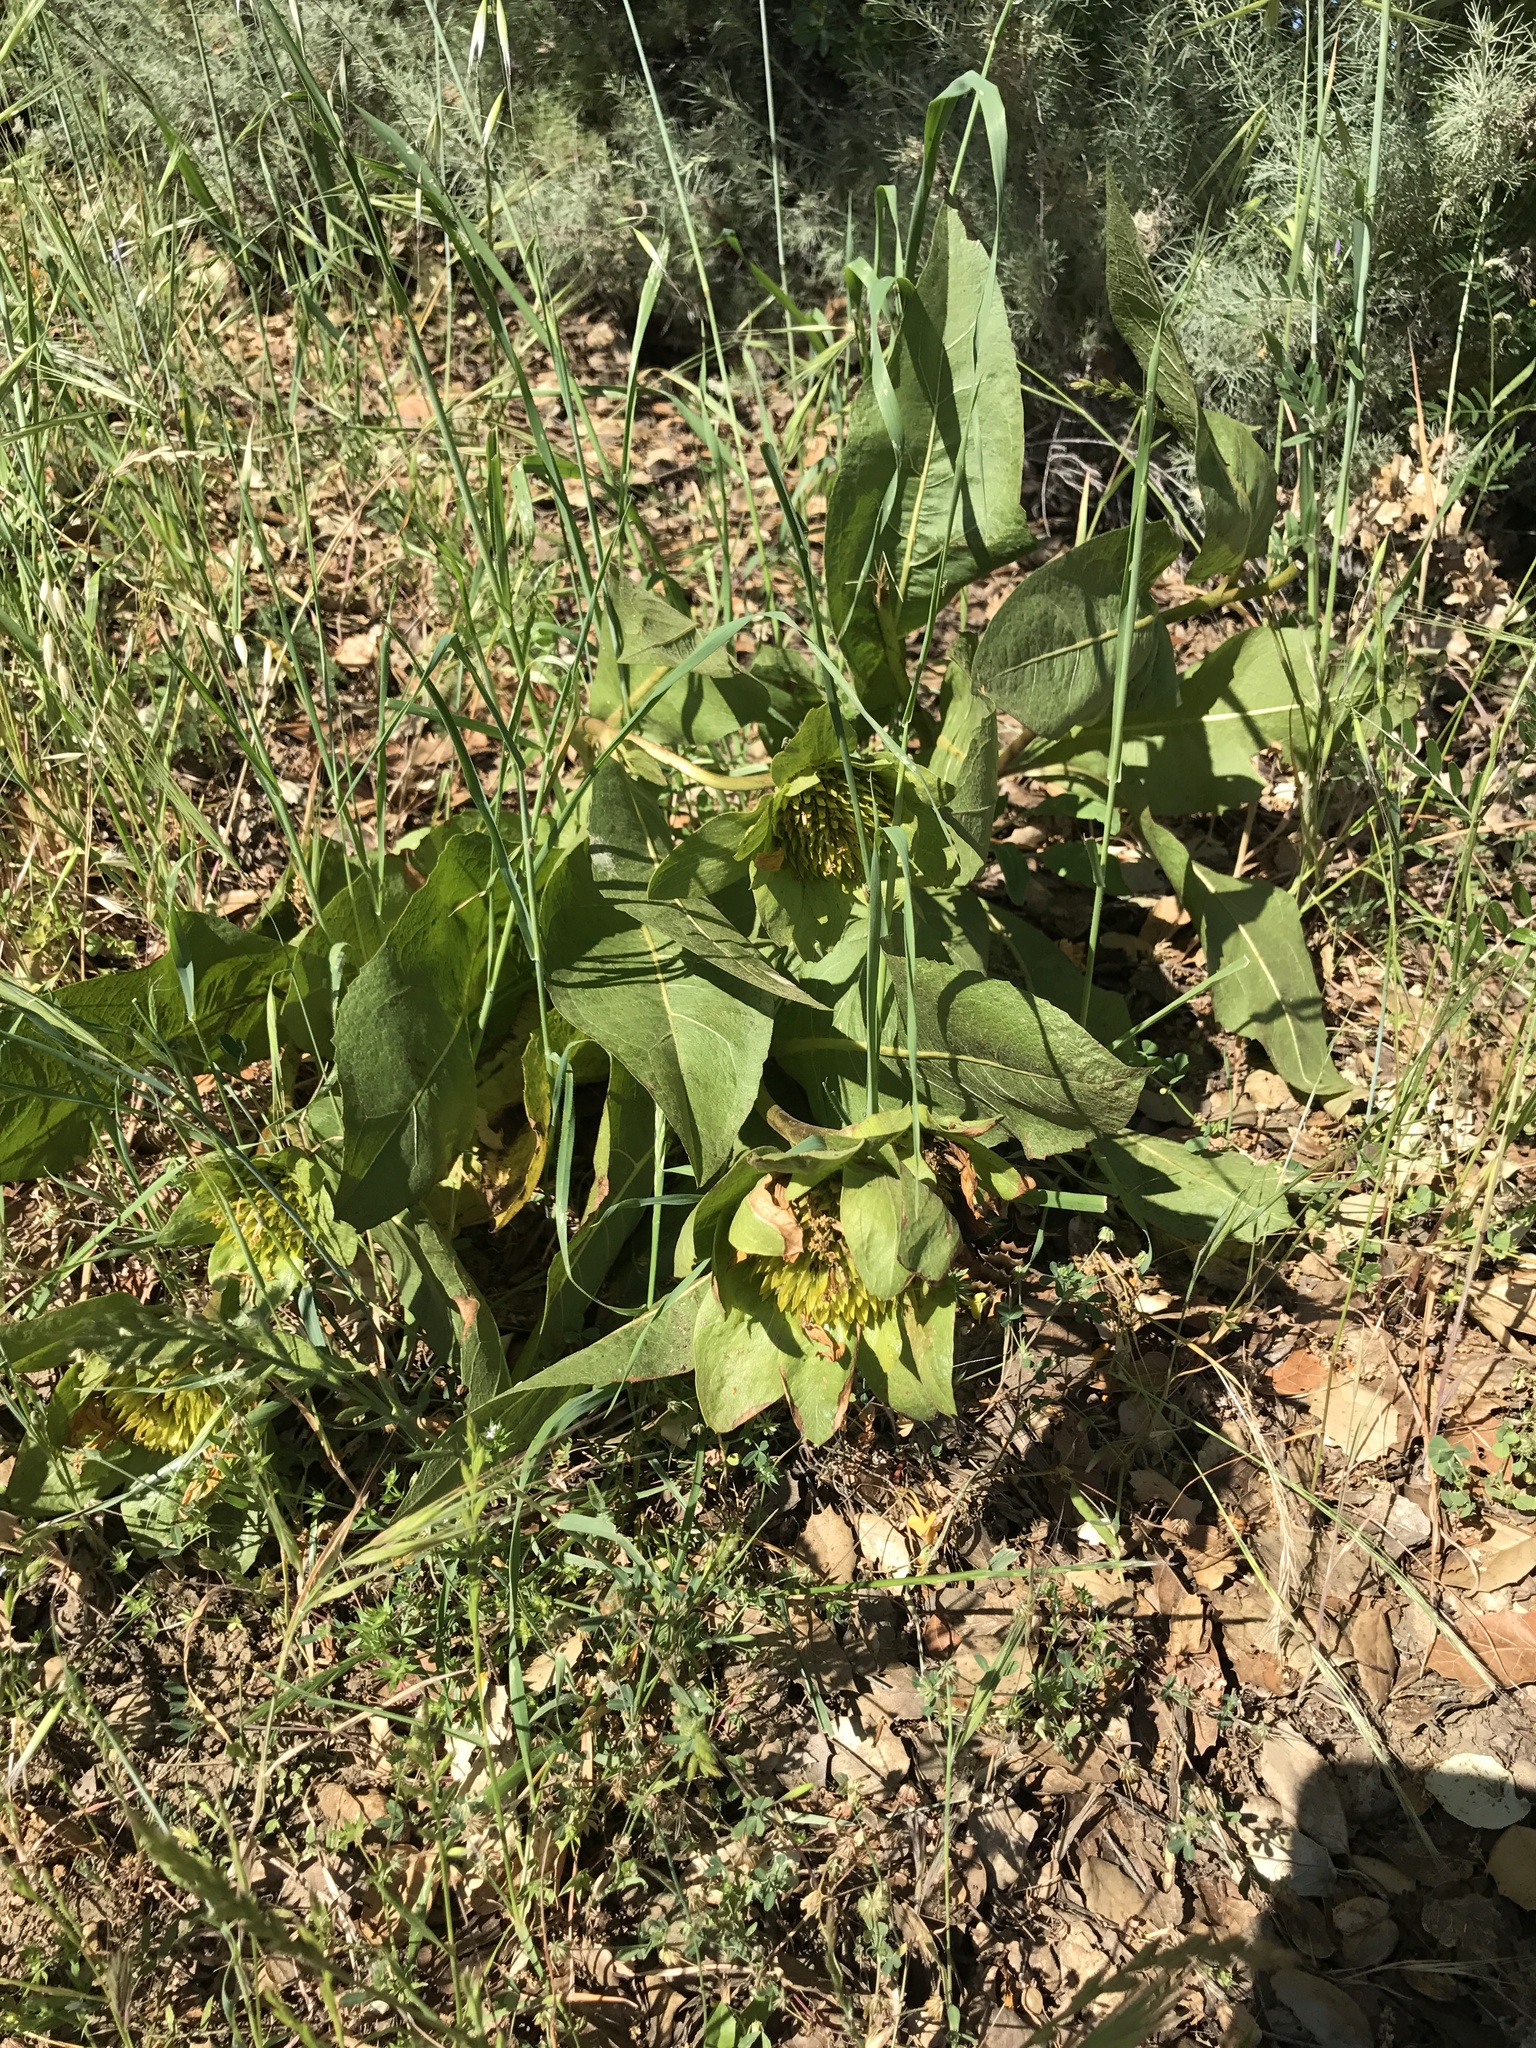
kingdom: Plantae
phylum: Tracheophyta
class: Magnoliopsida
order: Asterales
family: Asteraceae
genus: Wyethia
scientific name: Wyethia glabra
